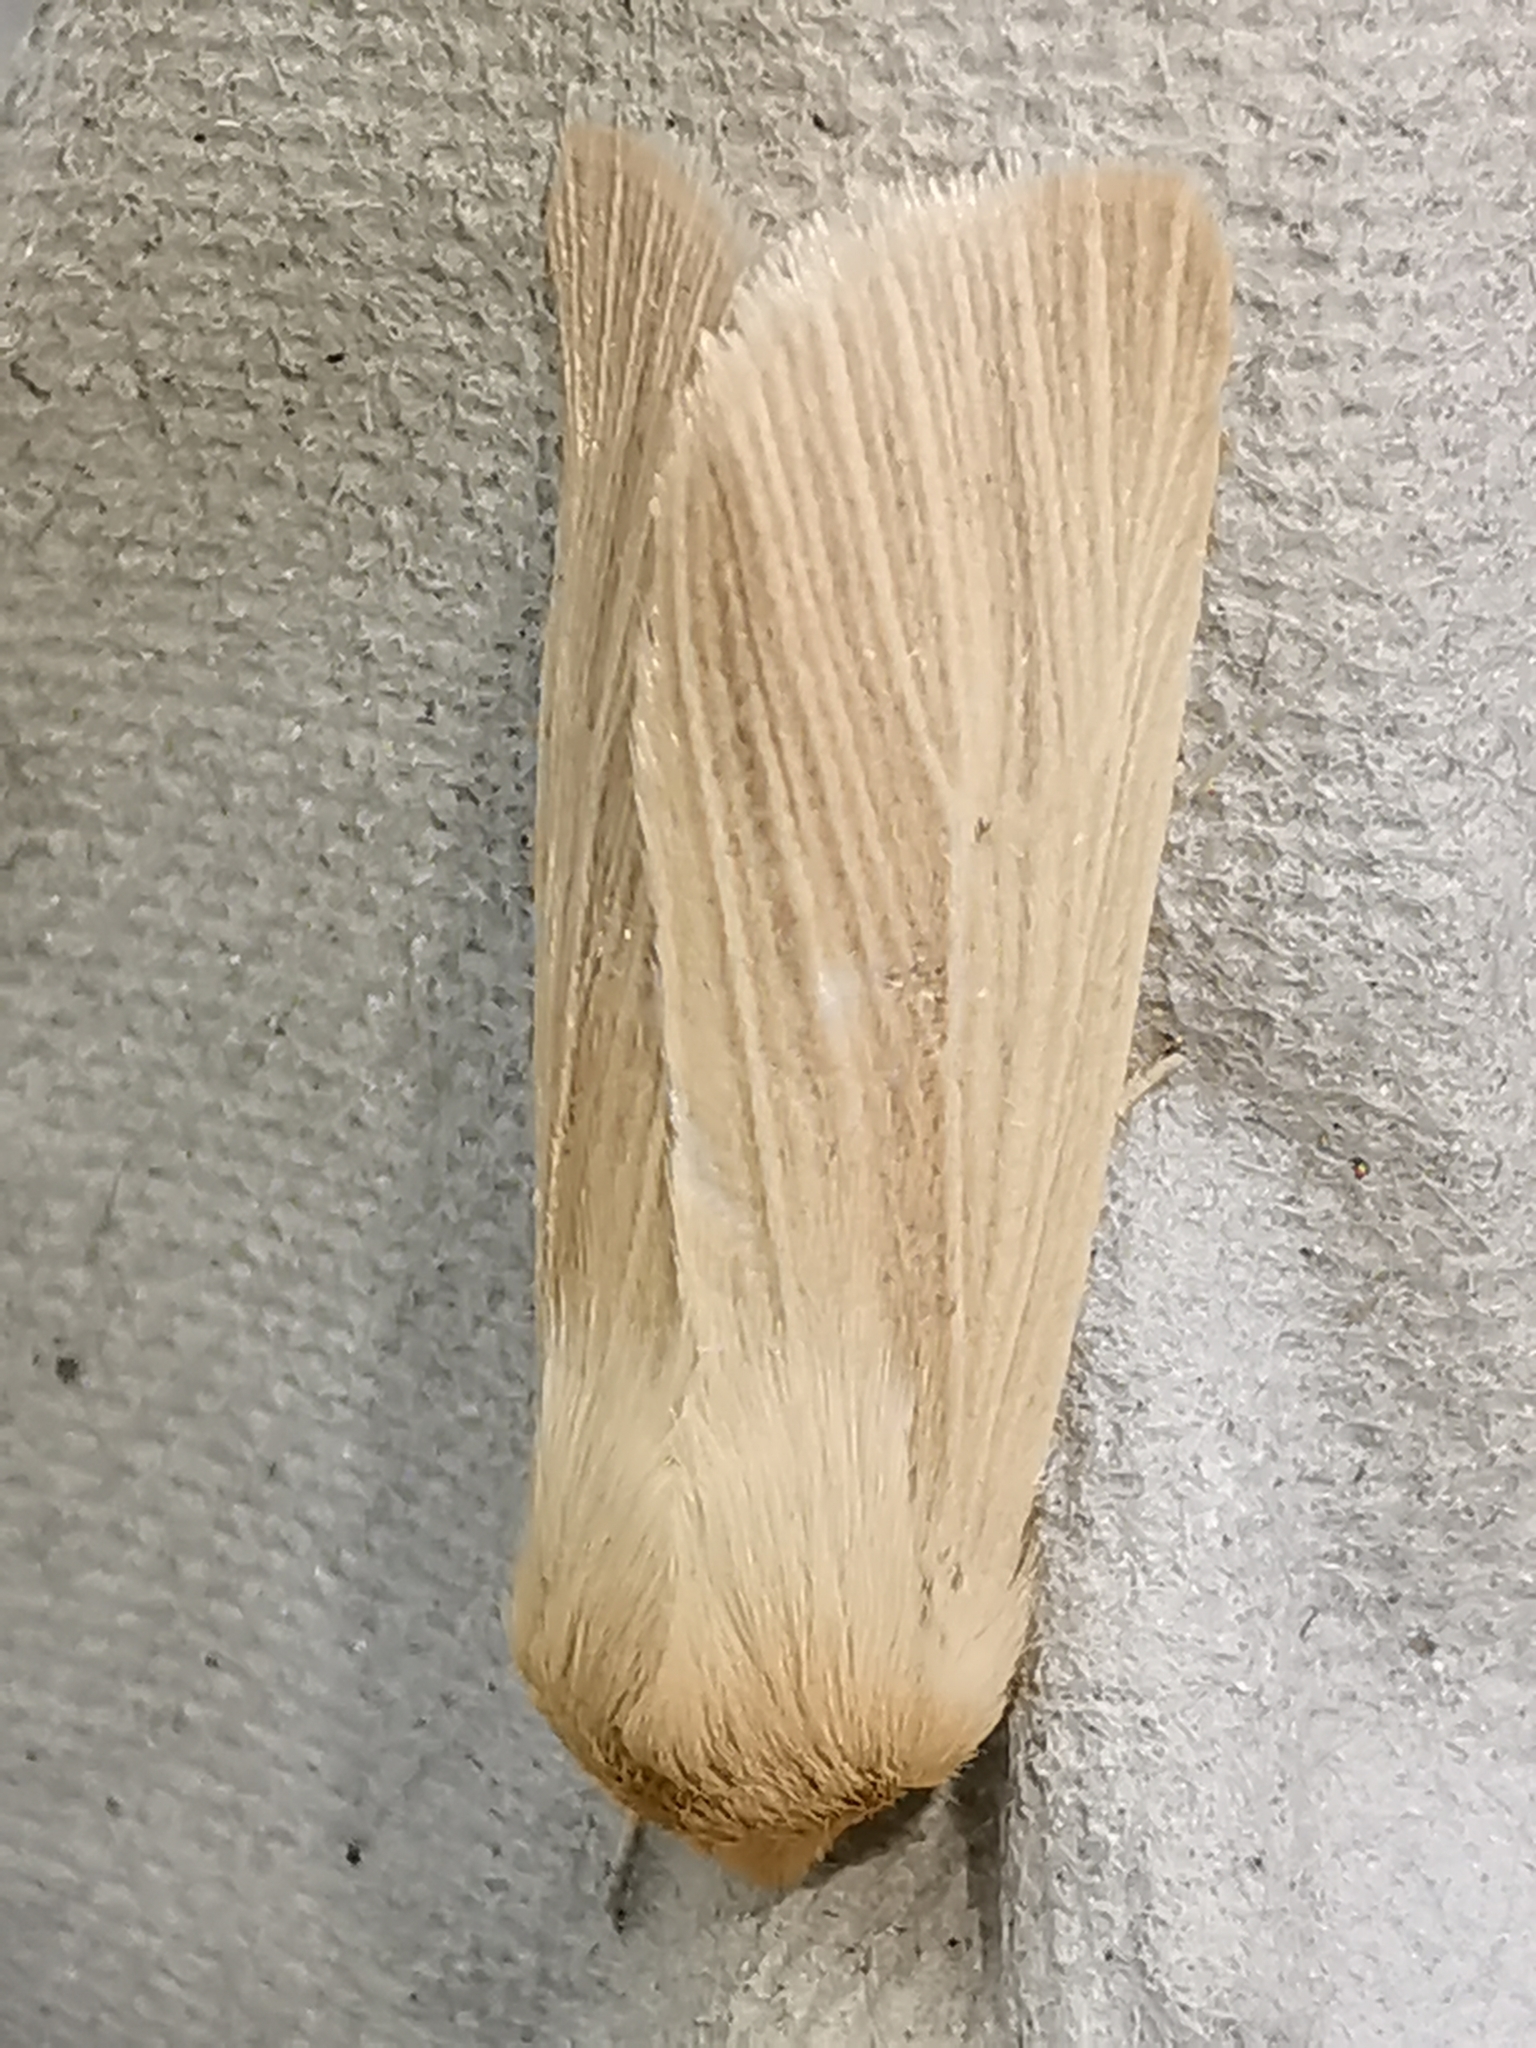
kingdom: Animalia
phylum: Arthropoda
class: Insecta
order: Lepidoptera
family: Noctuidae
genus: Mythimna
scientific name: Mythimna pallens
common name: Common wainscot
